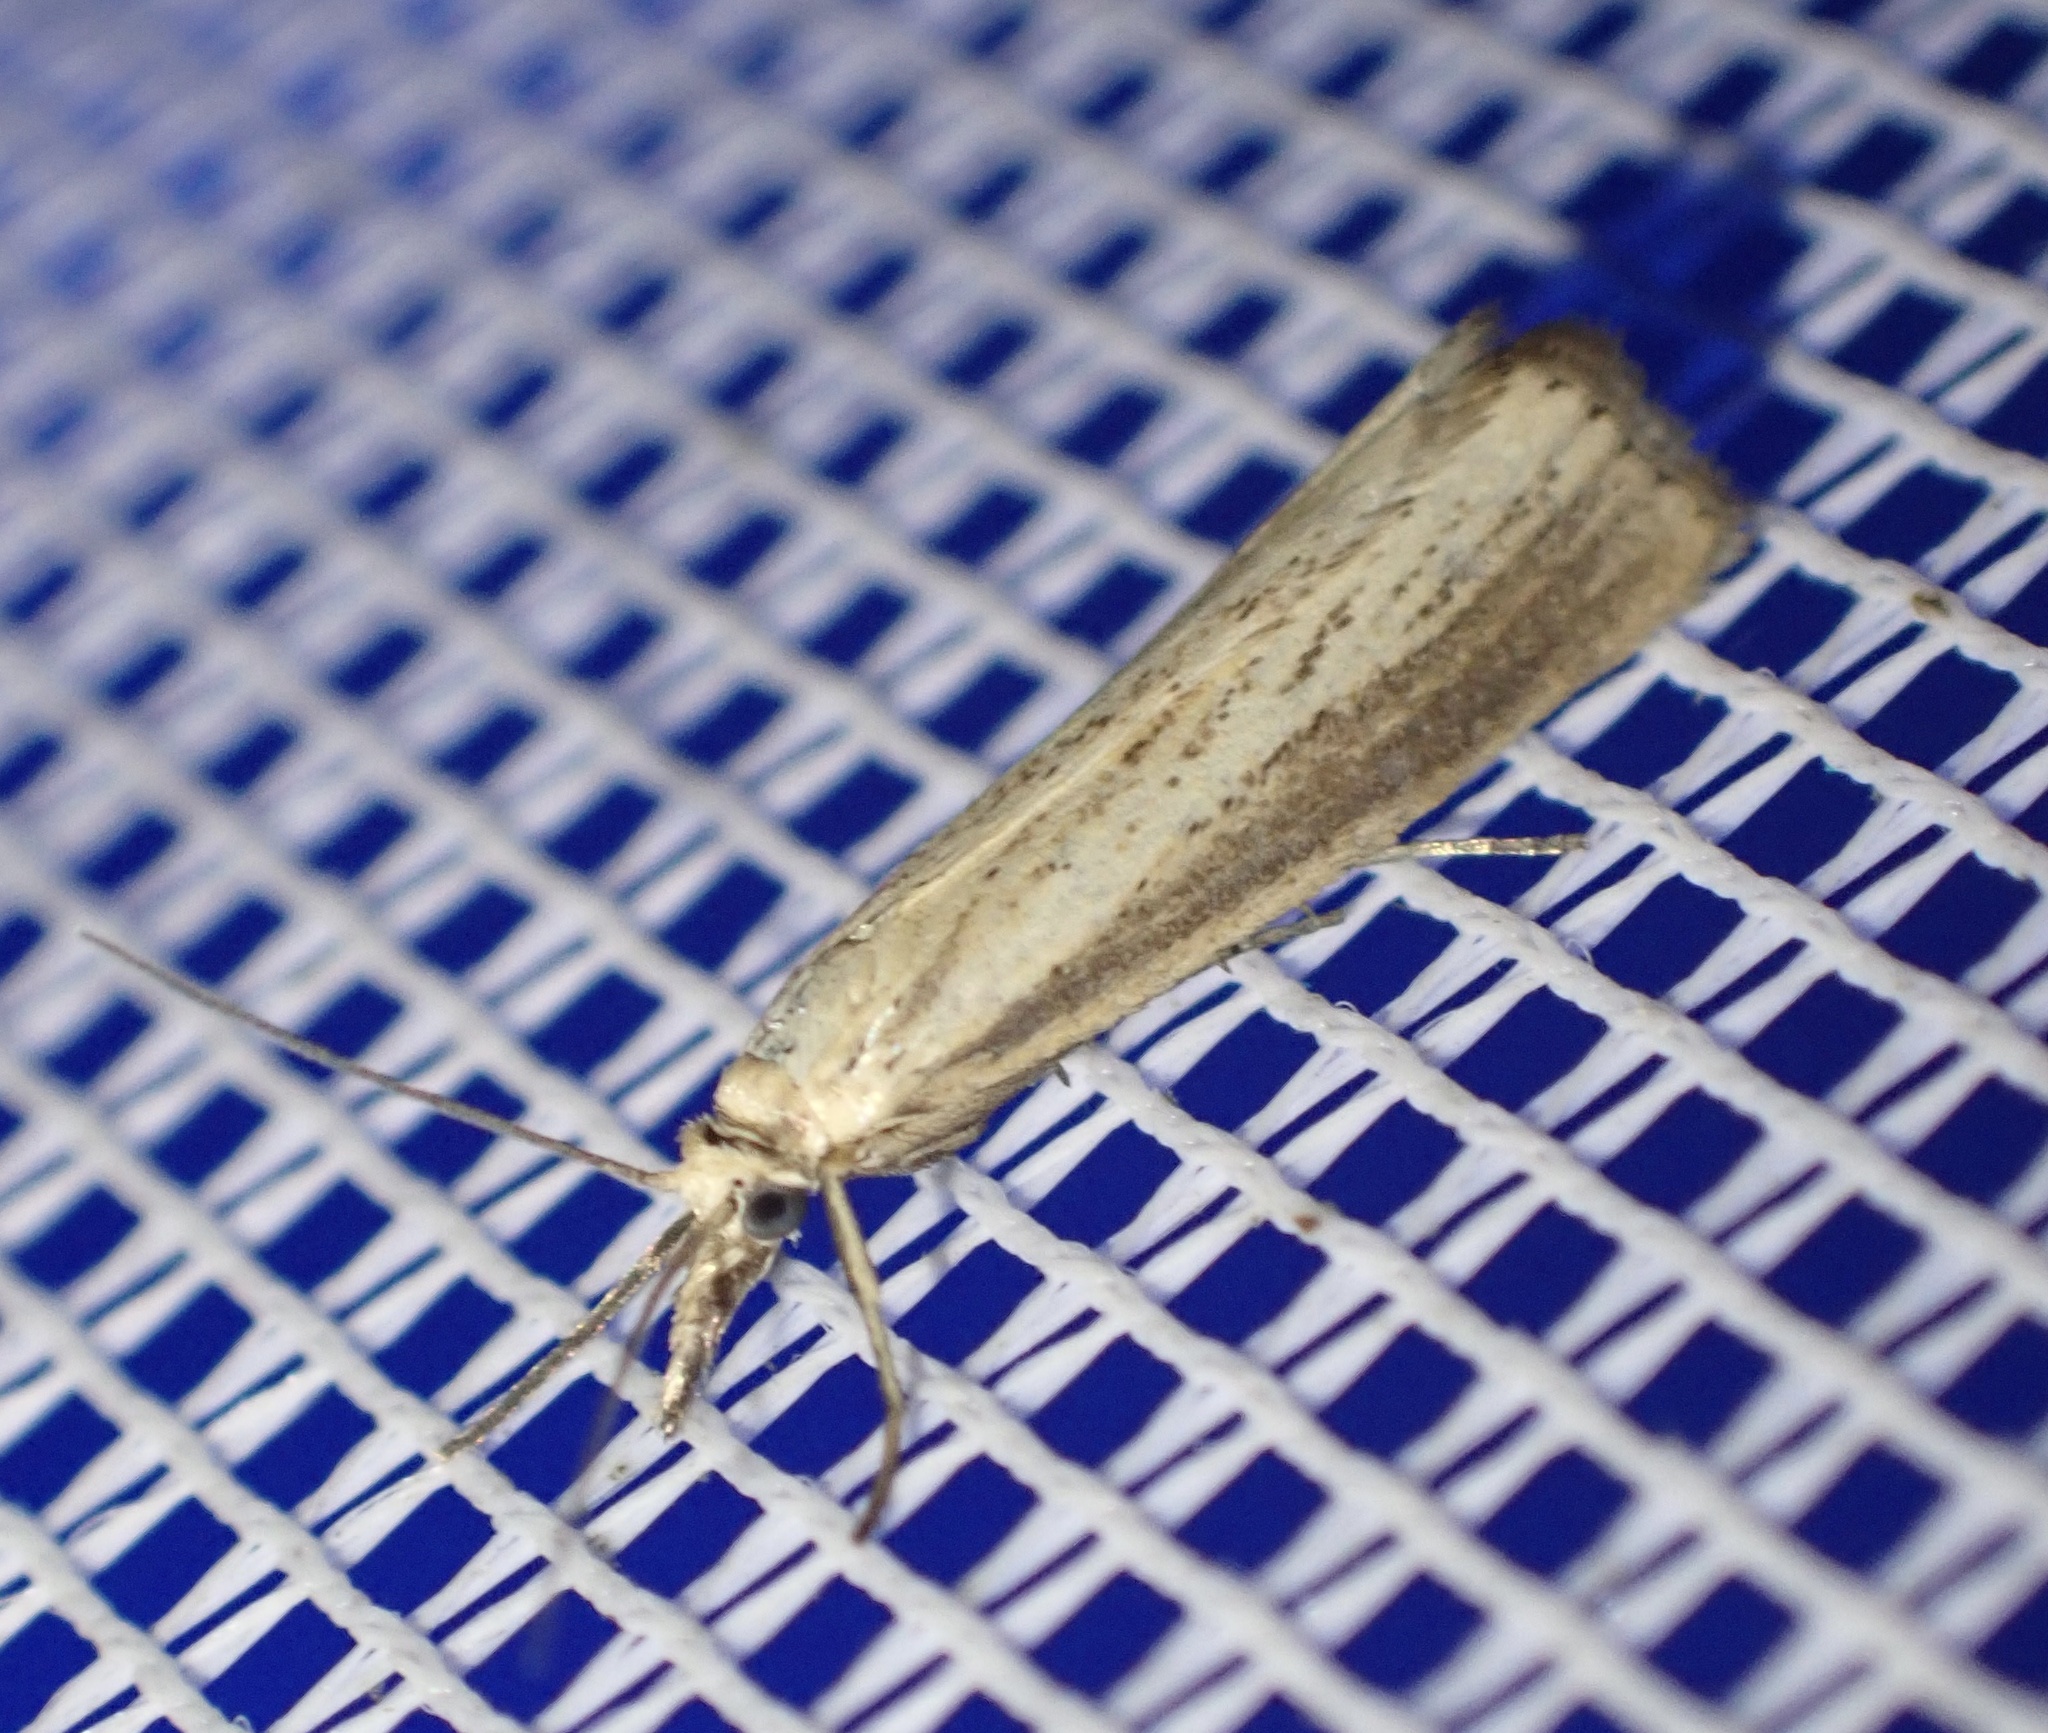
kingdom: Animalia
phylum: Arthropoda
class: Insecta
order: Lepidoptera
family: Crambidae
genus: Agriphila
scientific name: Agriphila straminella
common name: Straw grass-veneer
